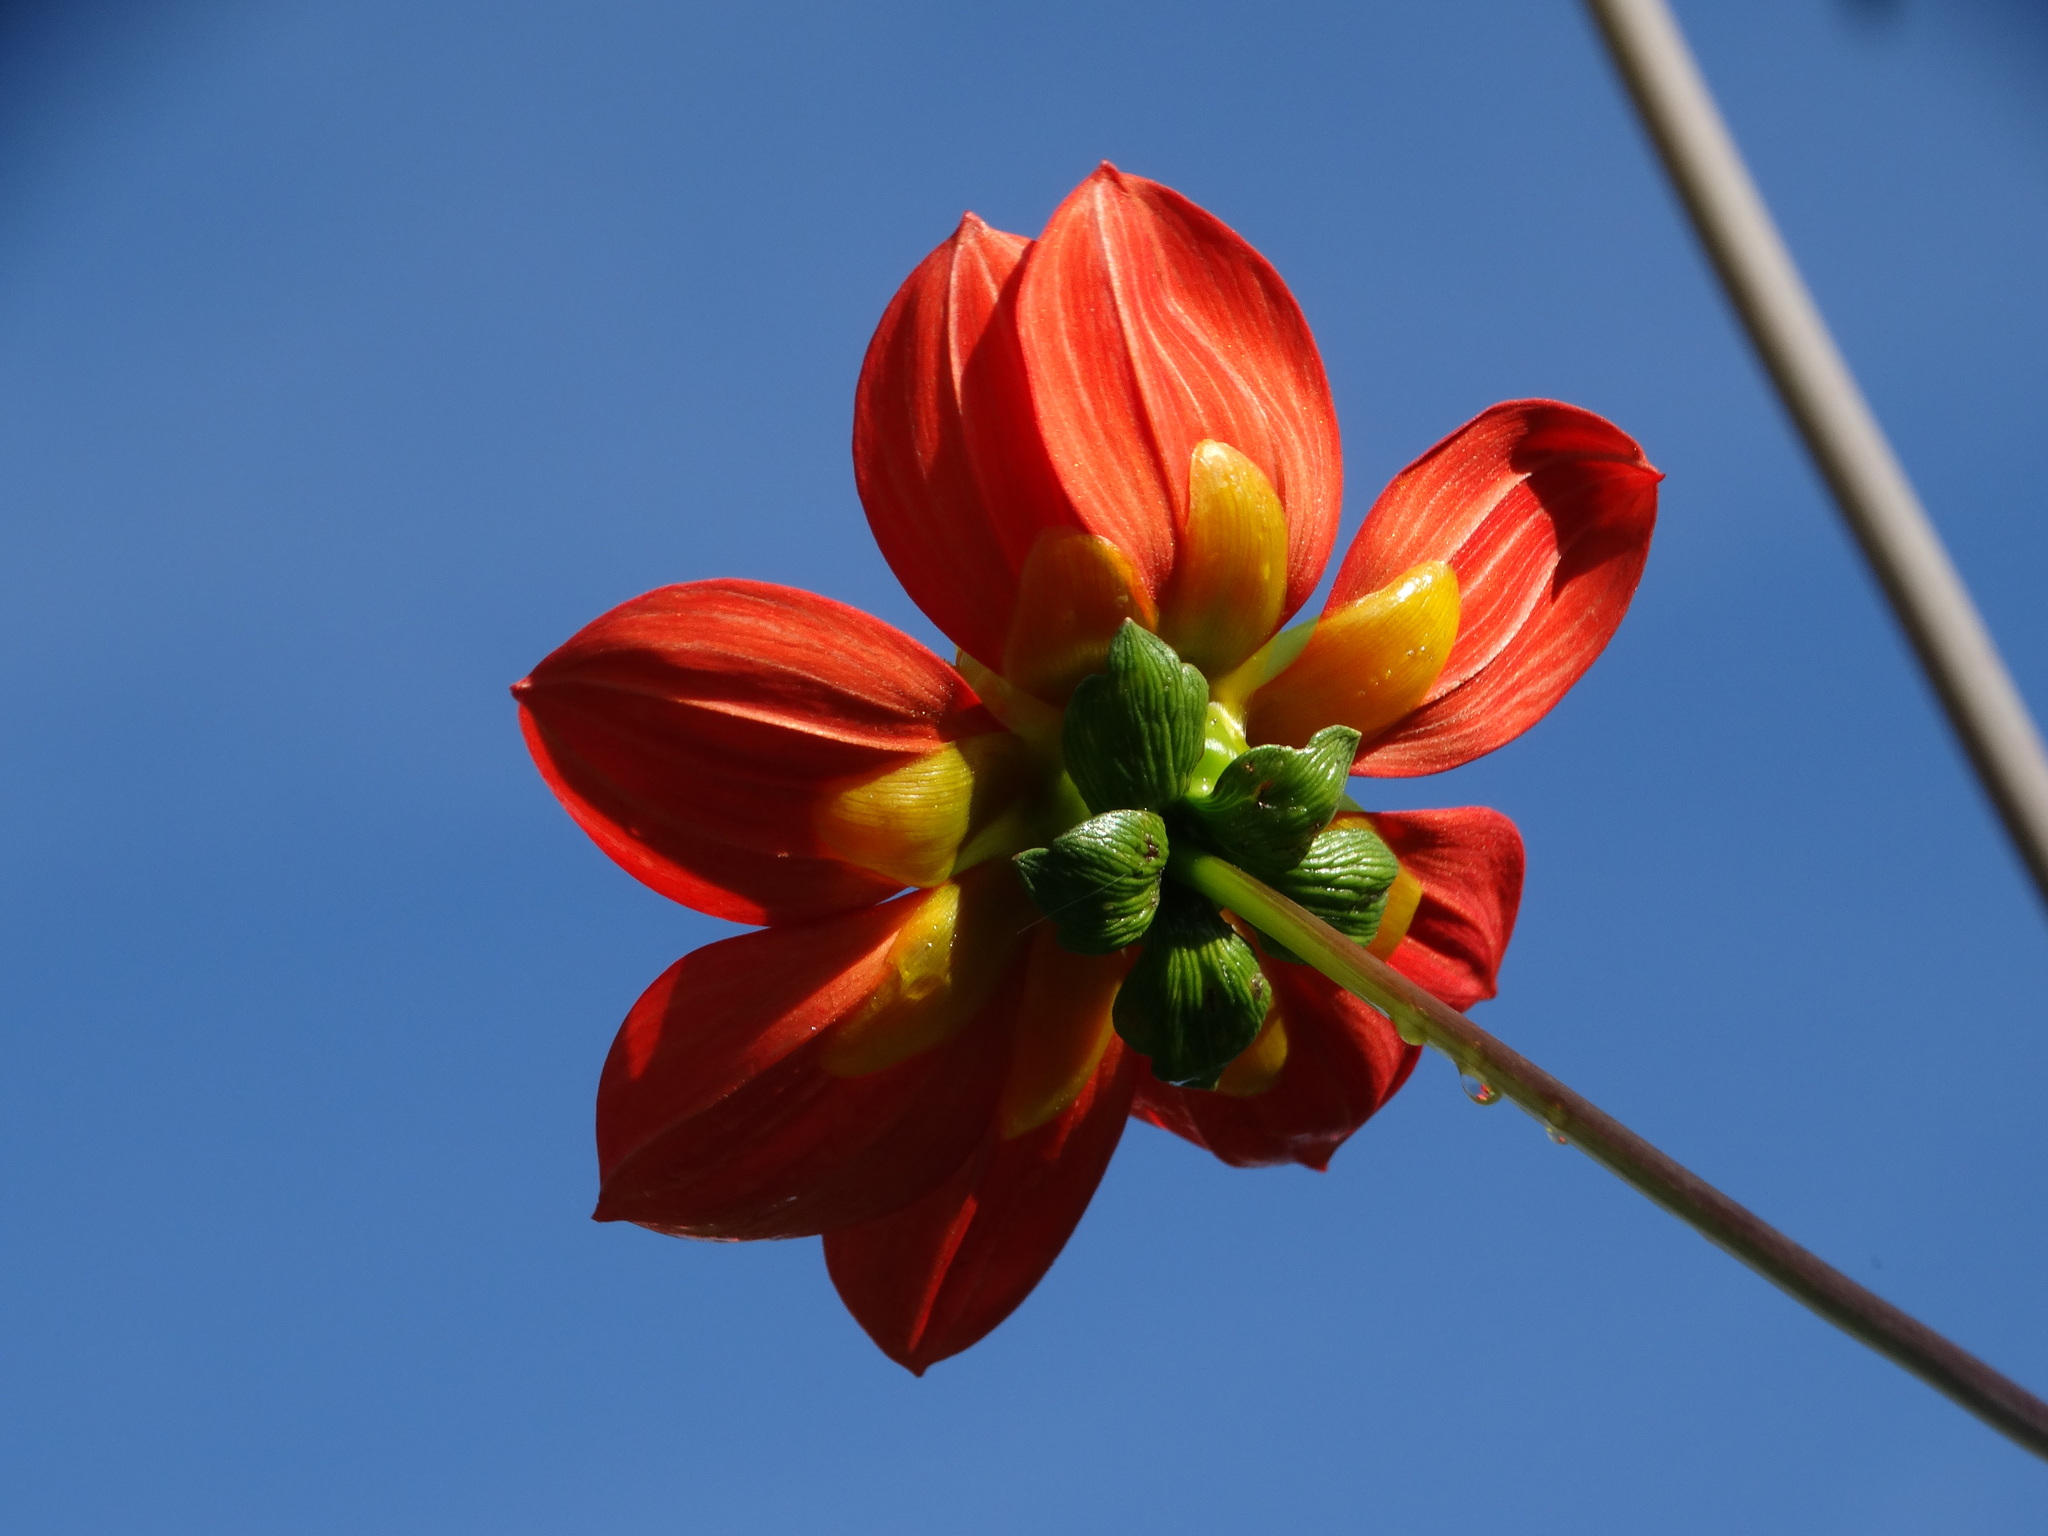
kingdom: Plantae
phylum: Tracheophyta
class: Magnoliopsida
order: Asterales
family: Asteraceae
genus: Dahlia
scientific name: Dahlia coccinea
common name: Red dahlia
